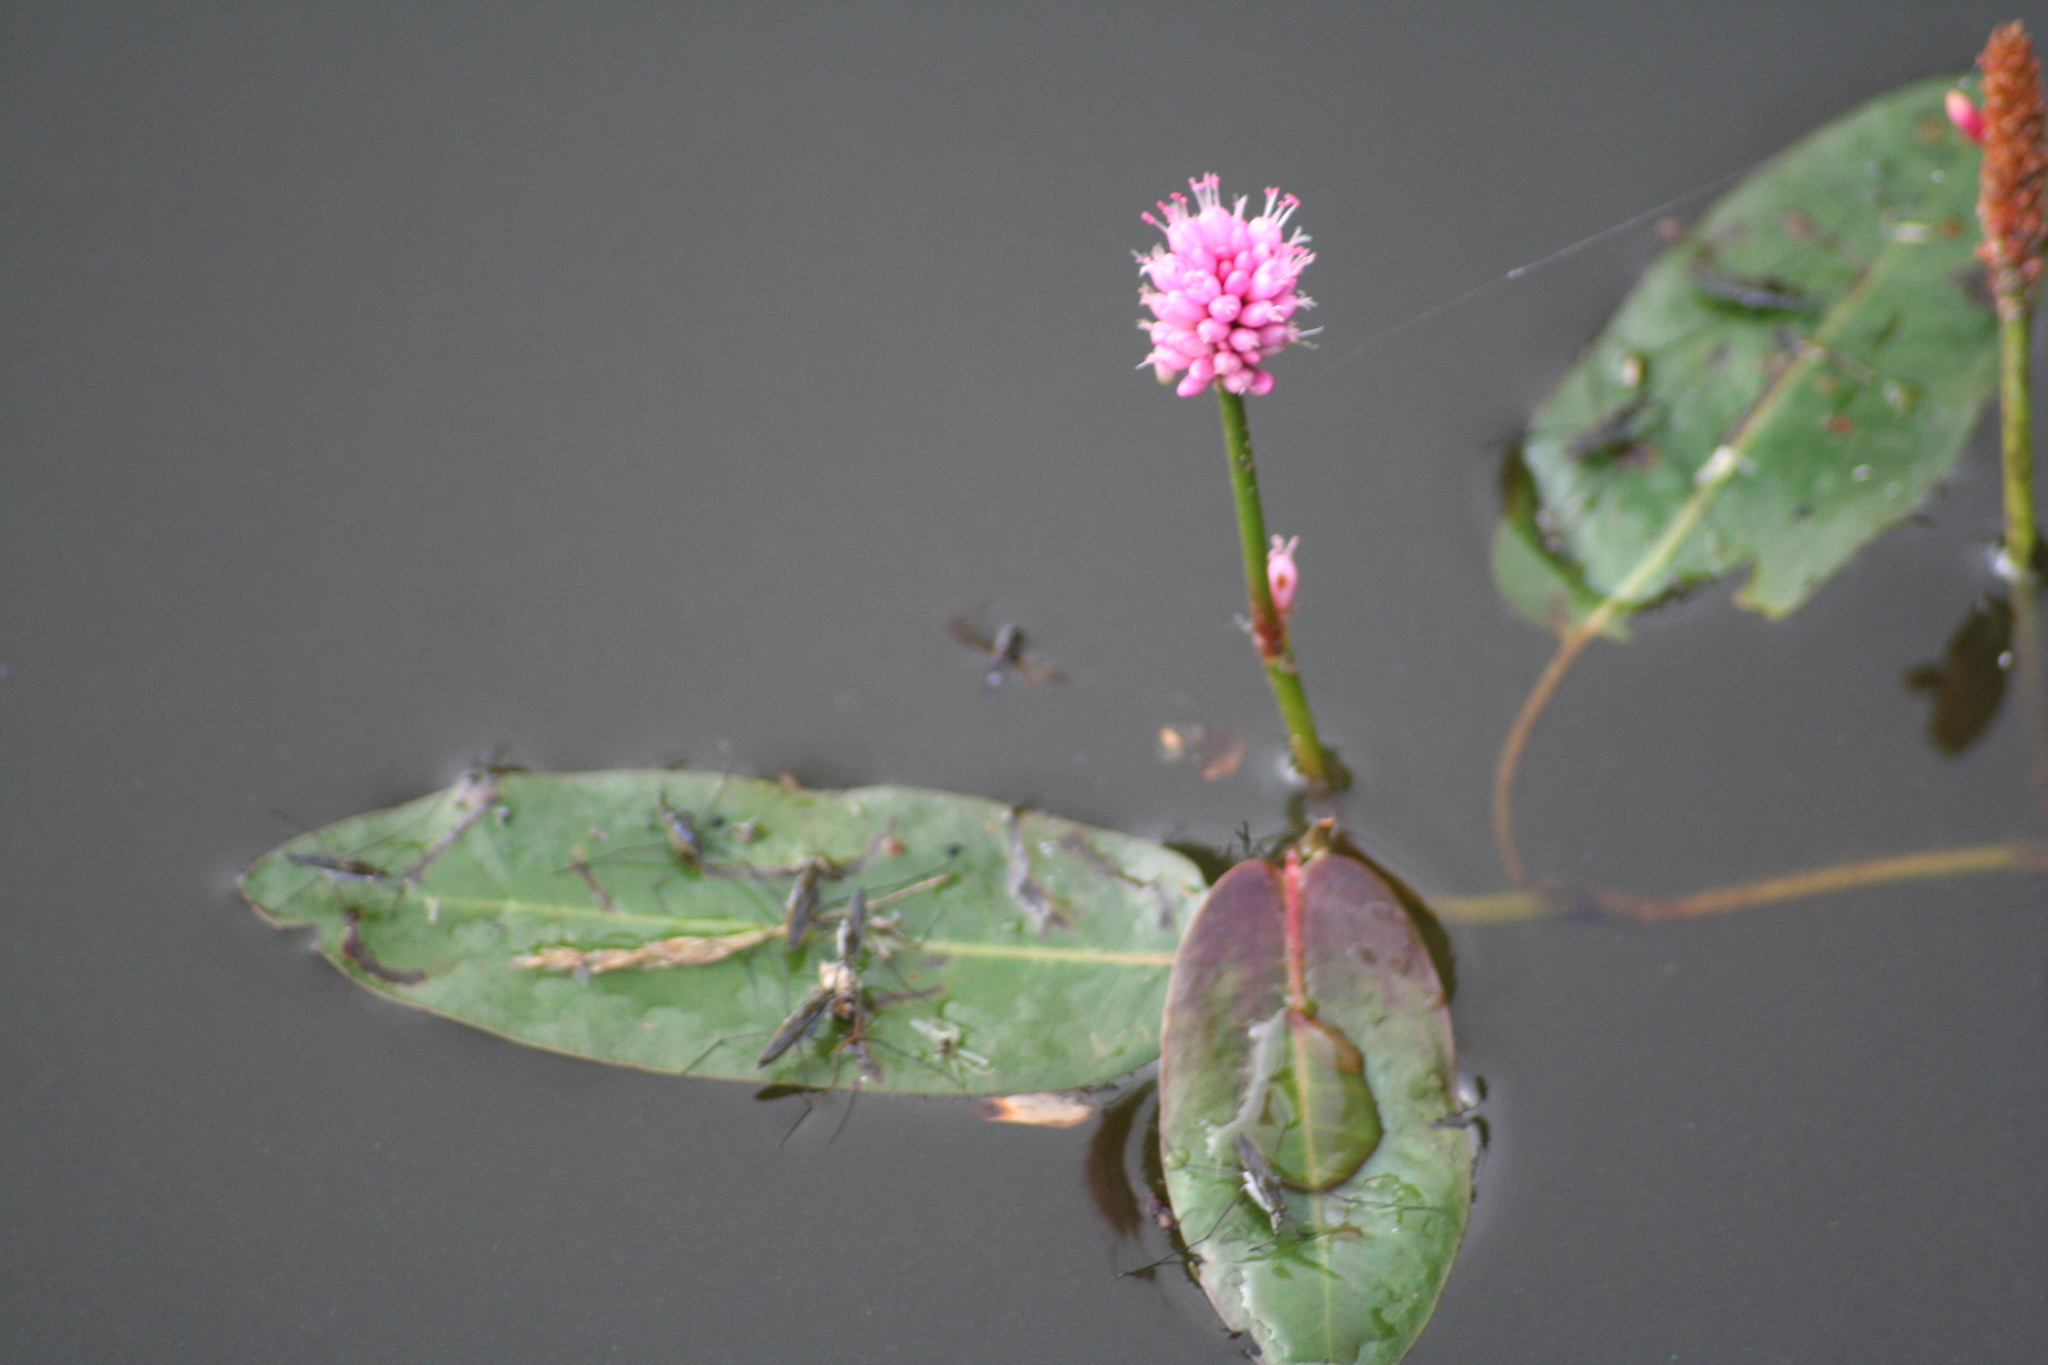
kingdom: Plantae
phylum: Tracheophyta
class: Magnoliopsida
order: Caryophyllales
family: Polygonaceae
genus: Persicaria
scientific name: Persicaria amphibia
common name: Amphibious bistort
